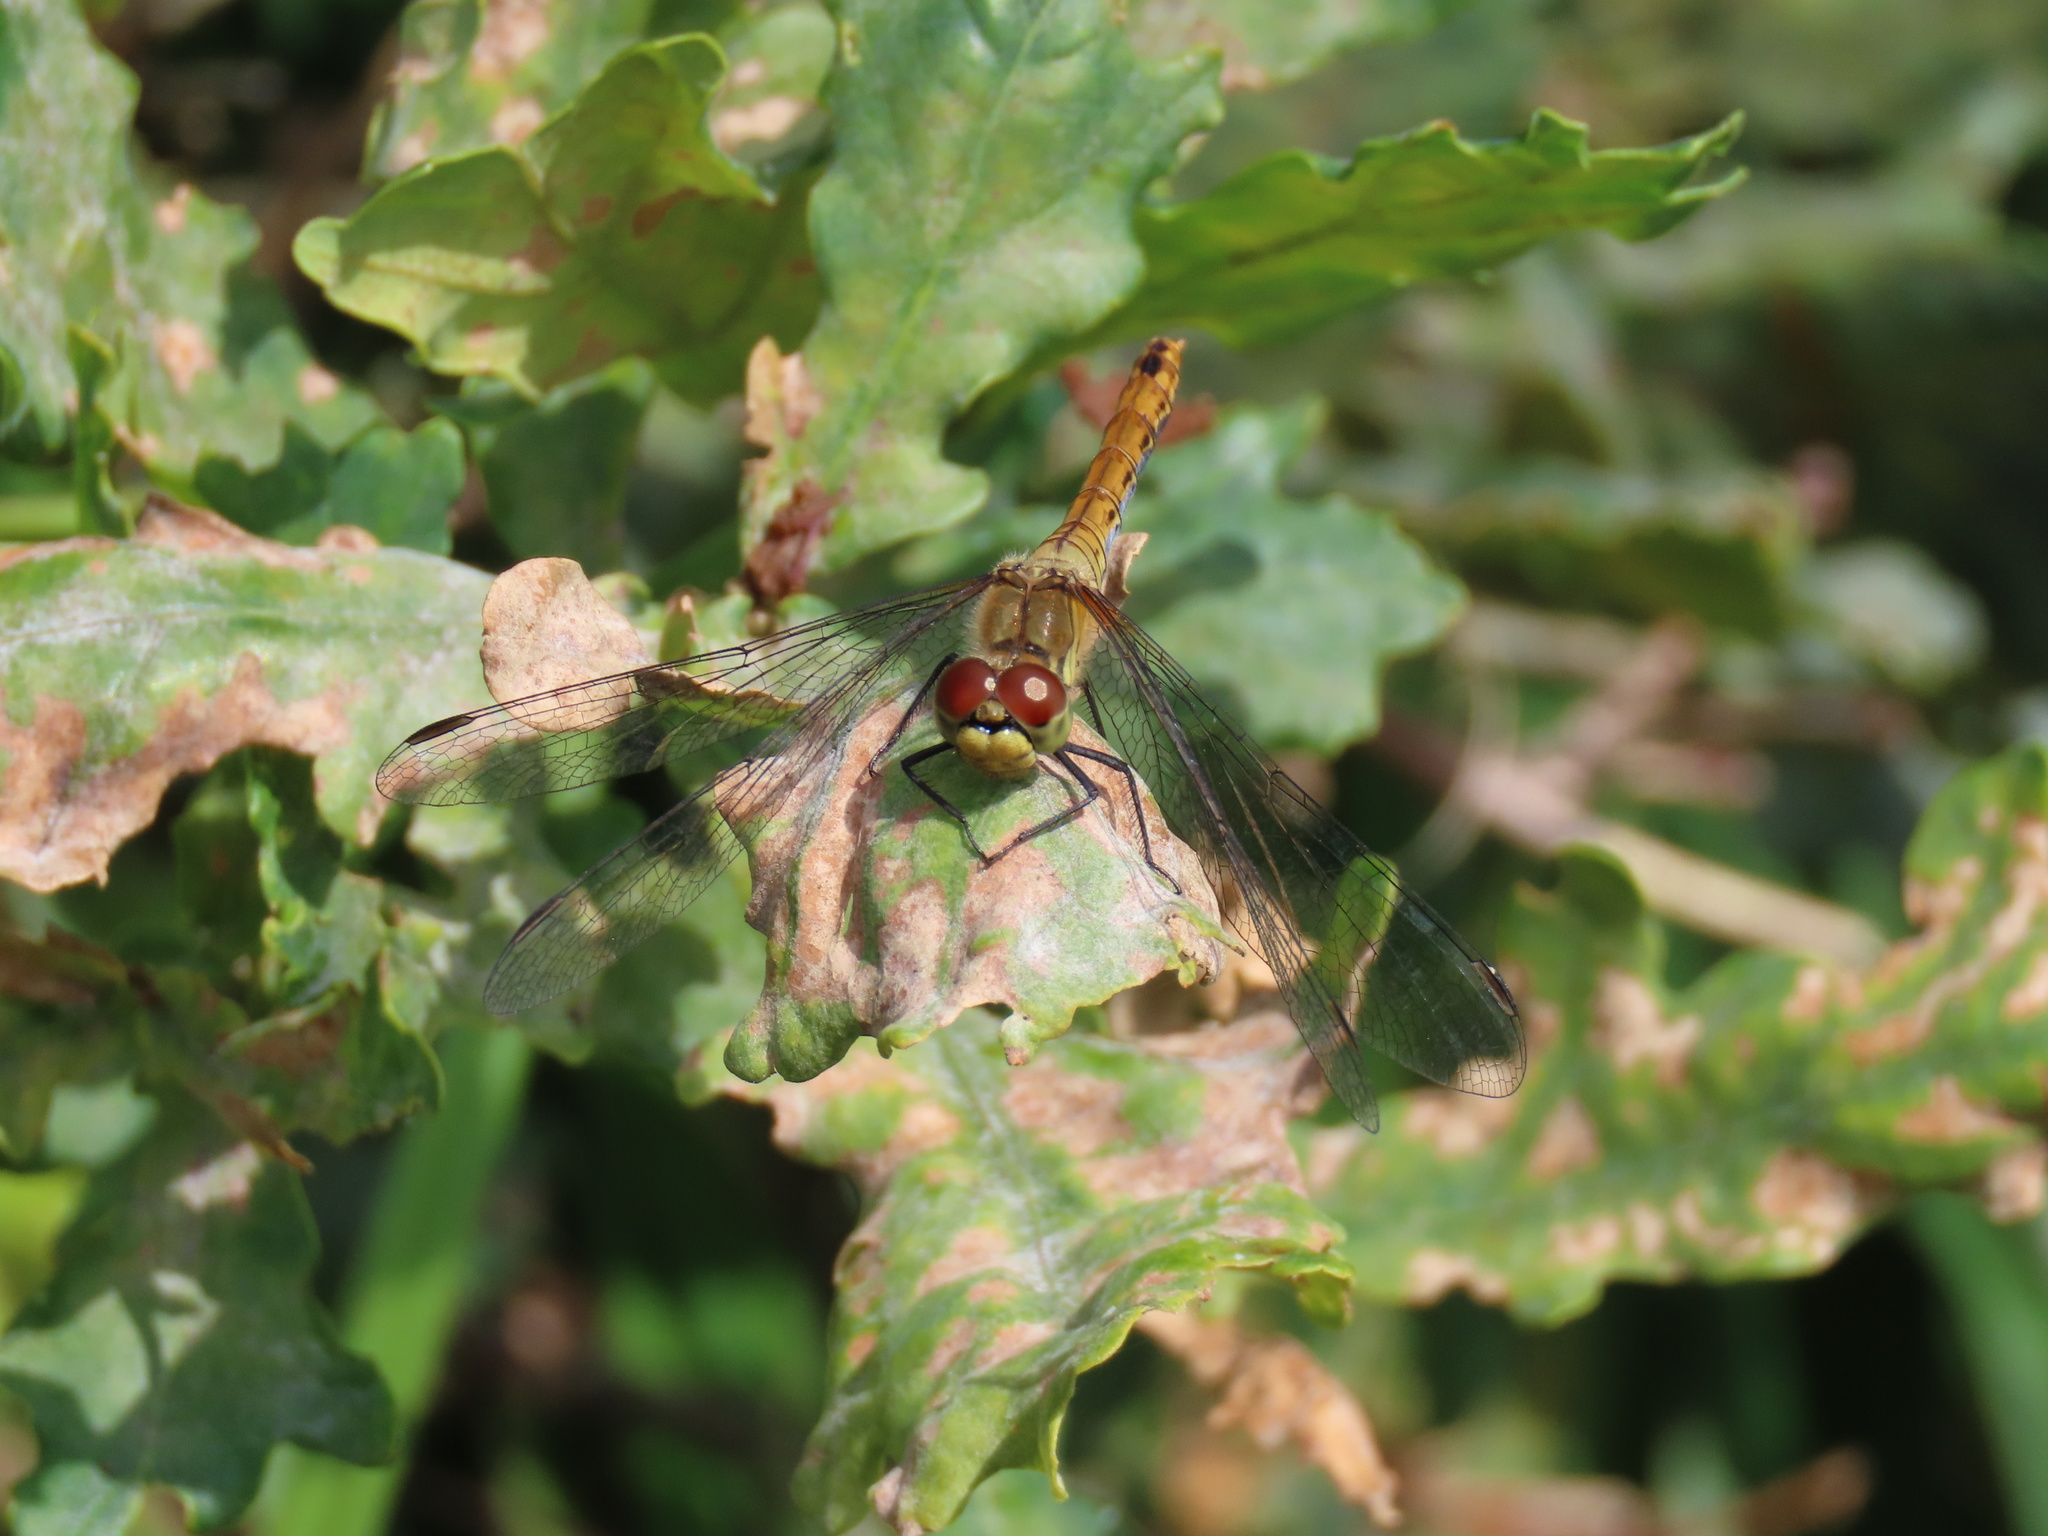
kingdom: Animalia
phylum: Arthropoda
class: Insecta
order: Odonata
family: Libellulidae
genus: Sympetrum
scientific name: Sympetrum sanguineum
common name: Ruddy darter
